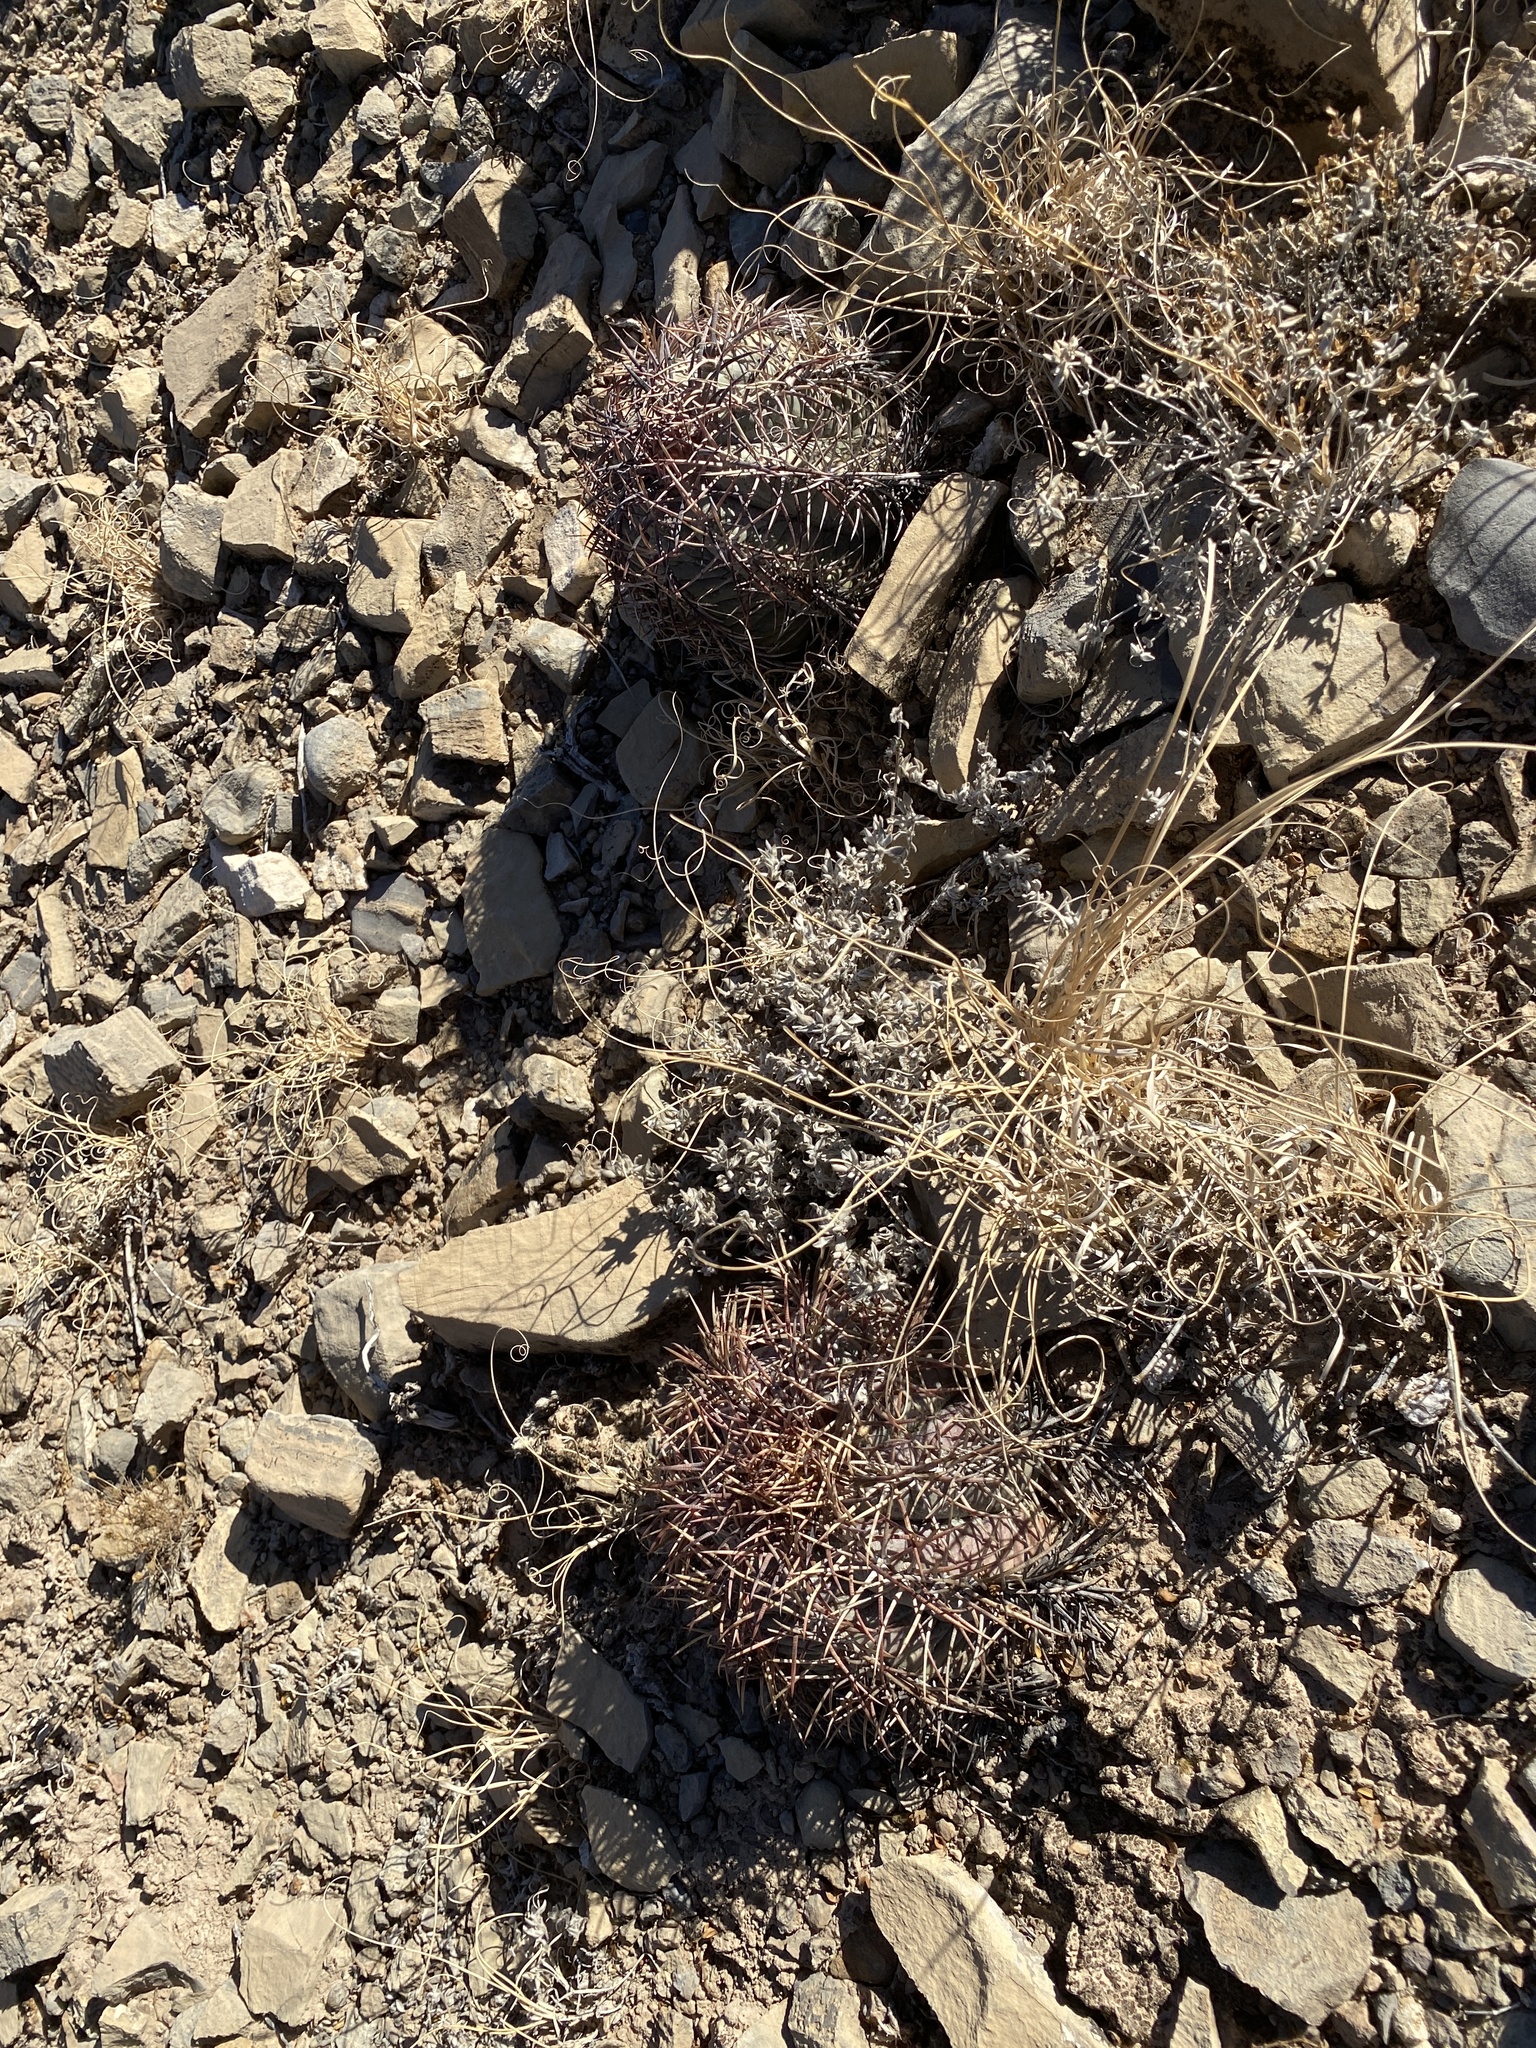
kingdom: Plantae
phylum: Tracheophyta
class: Magnoliopsida
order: Caryophyllales
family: Cactaceae
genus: Echinocactus
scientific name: Echinocactus horizonthalonius
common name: Devilshead
